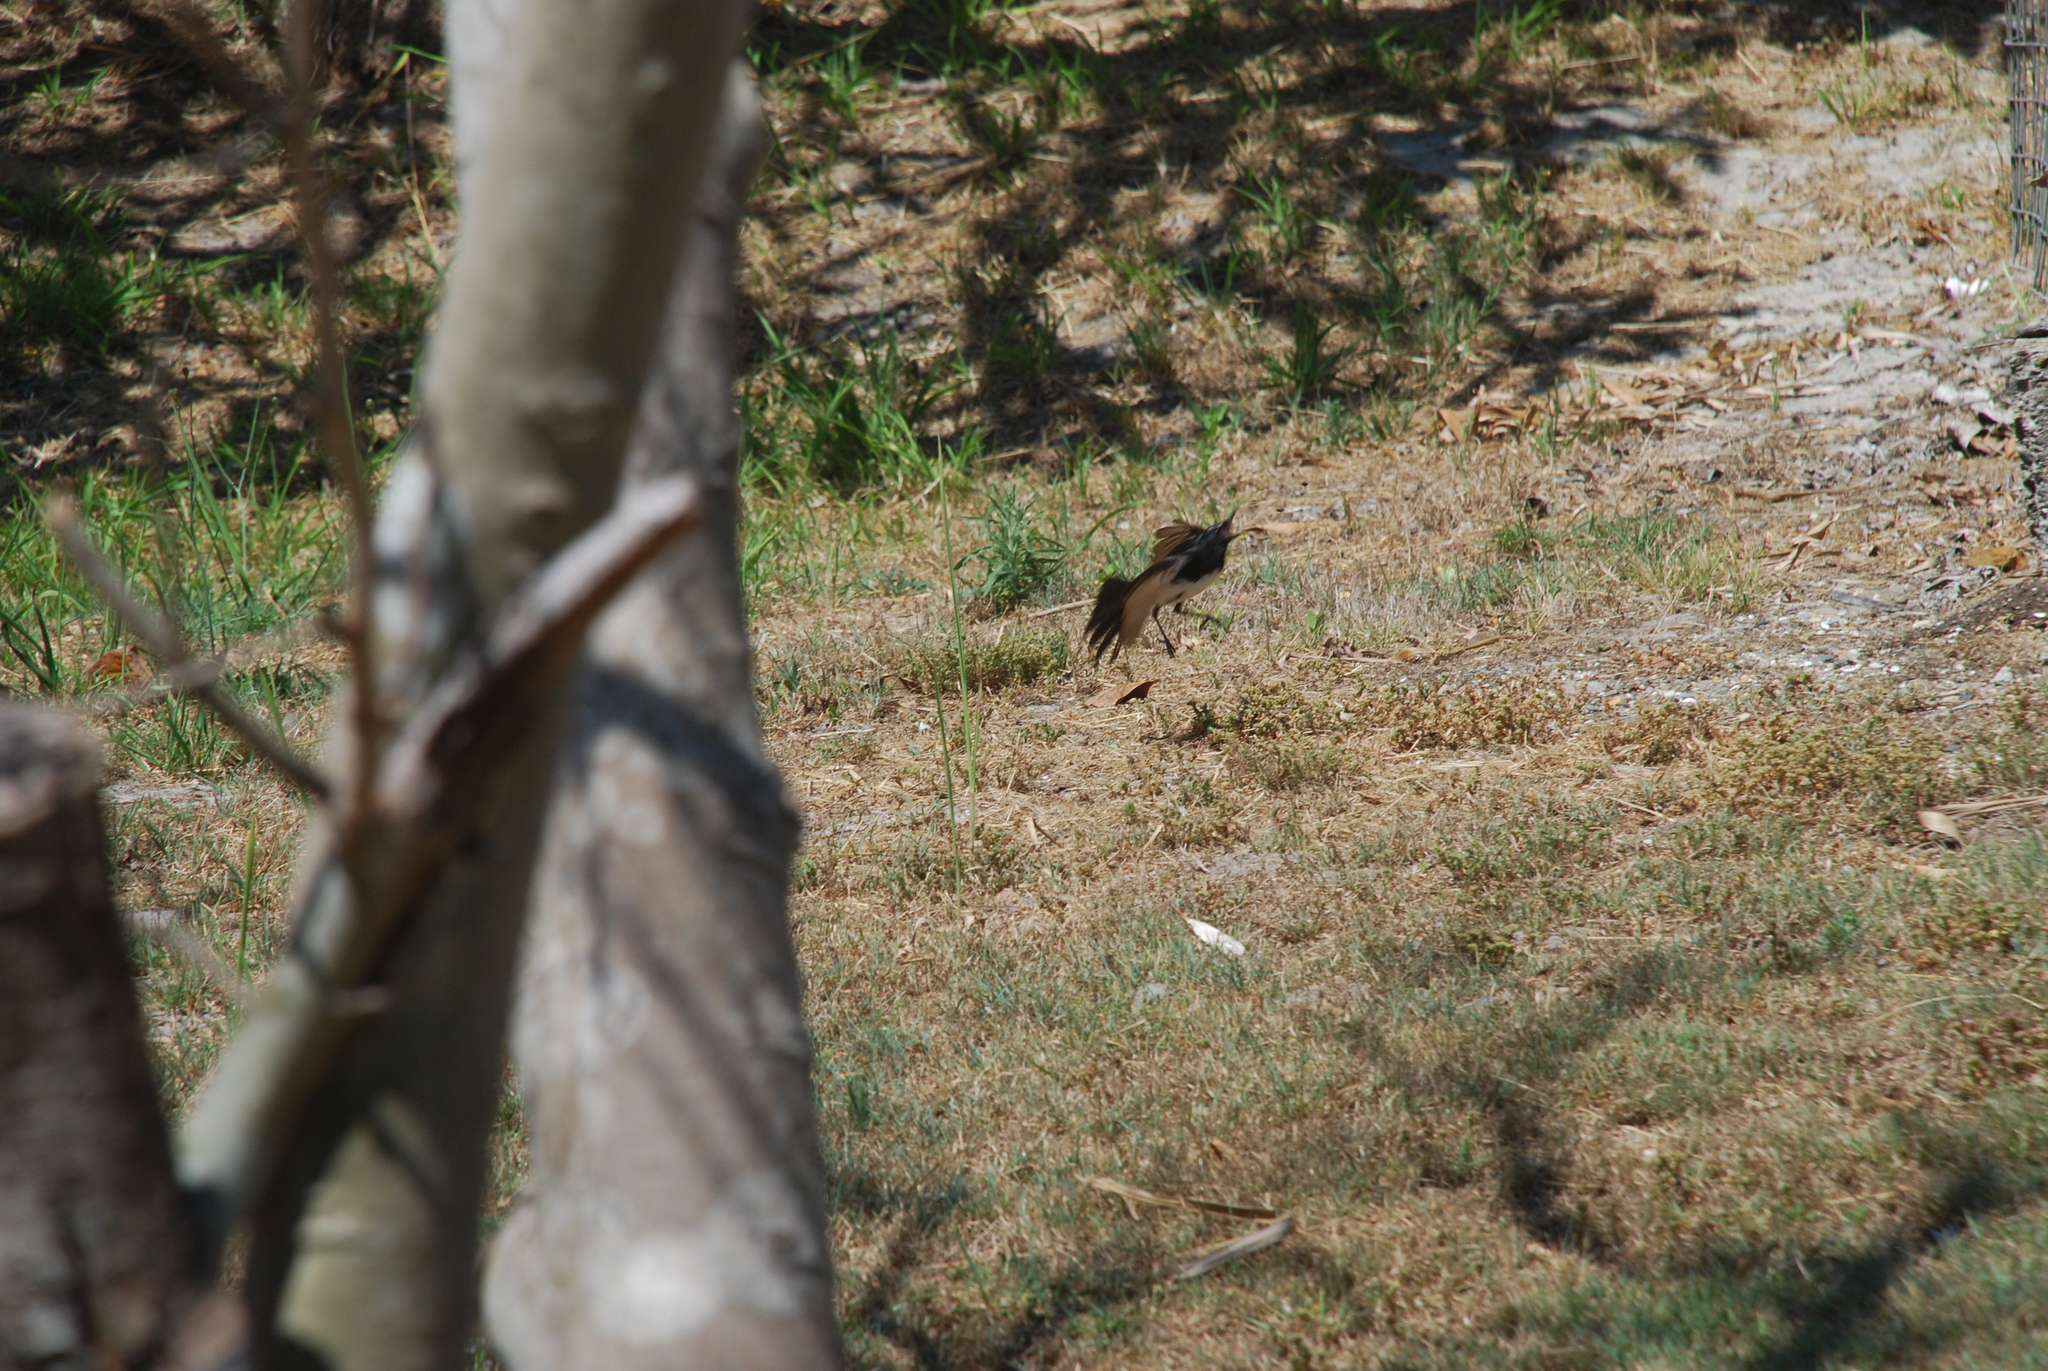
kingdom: Animalia
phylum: Chordata
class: Aves
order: Passeriformes
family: Rhipiduridae
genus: Rhipidura
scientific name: Rhipidura leucophrys
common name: Willie wagtail
